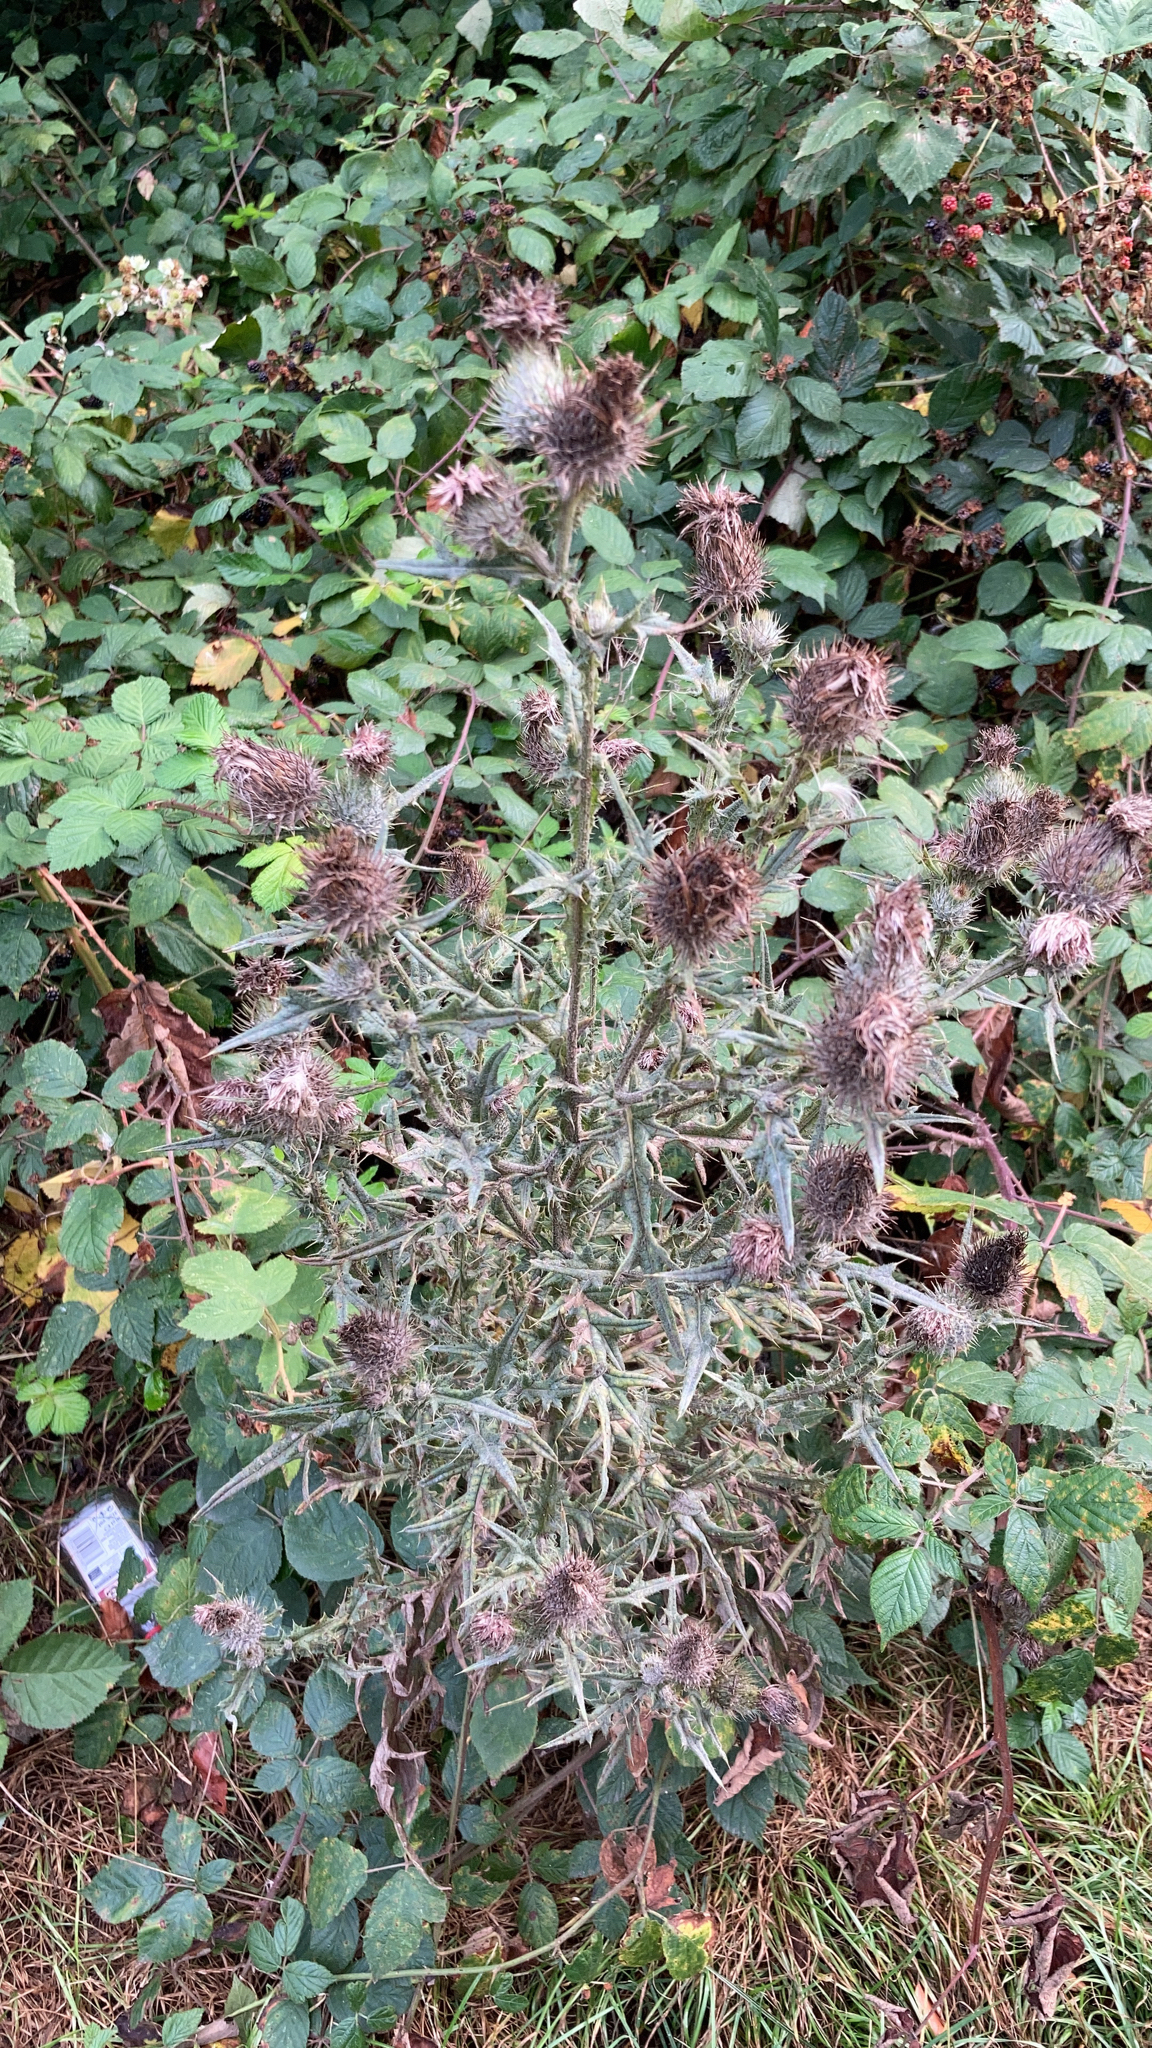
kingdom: Plantae
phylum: Tracheophyta
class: Magnoliopsida
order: Asterales
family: Asteraceae
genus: Cirsium
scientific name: Cirsium vulgare
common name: Bull thistle
